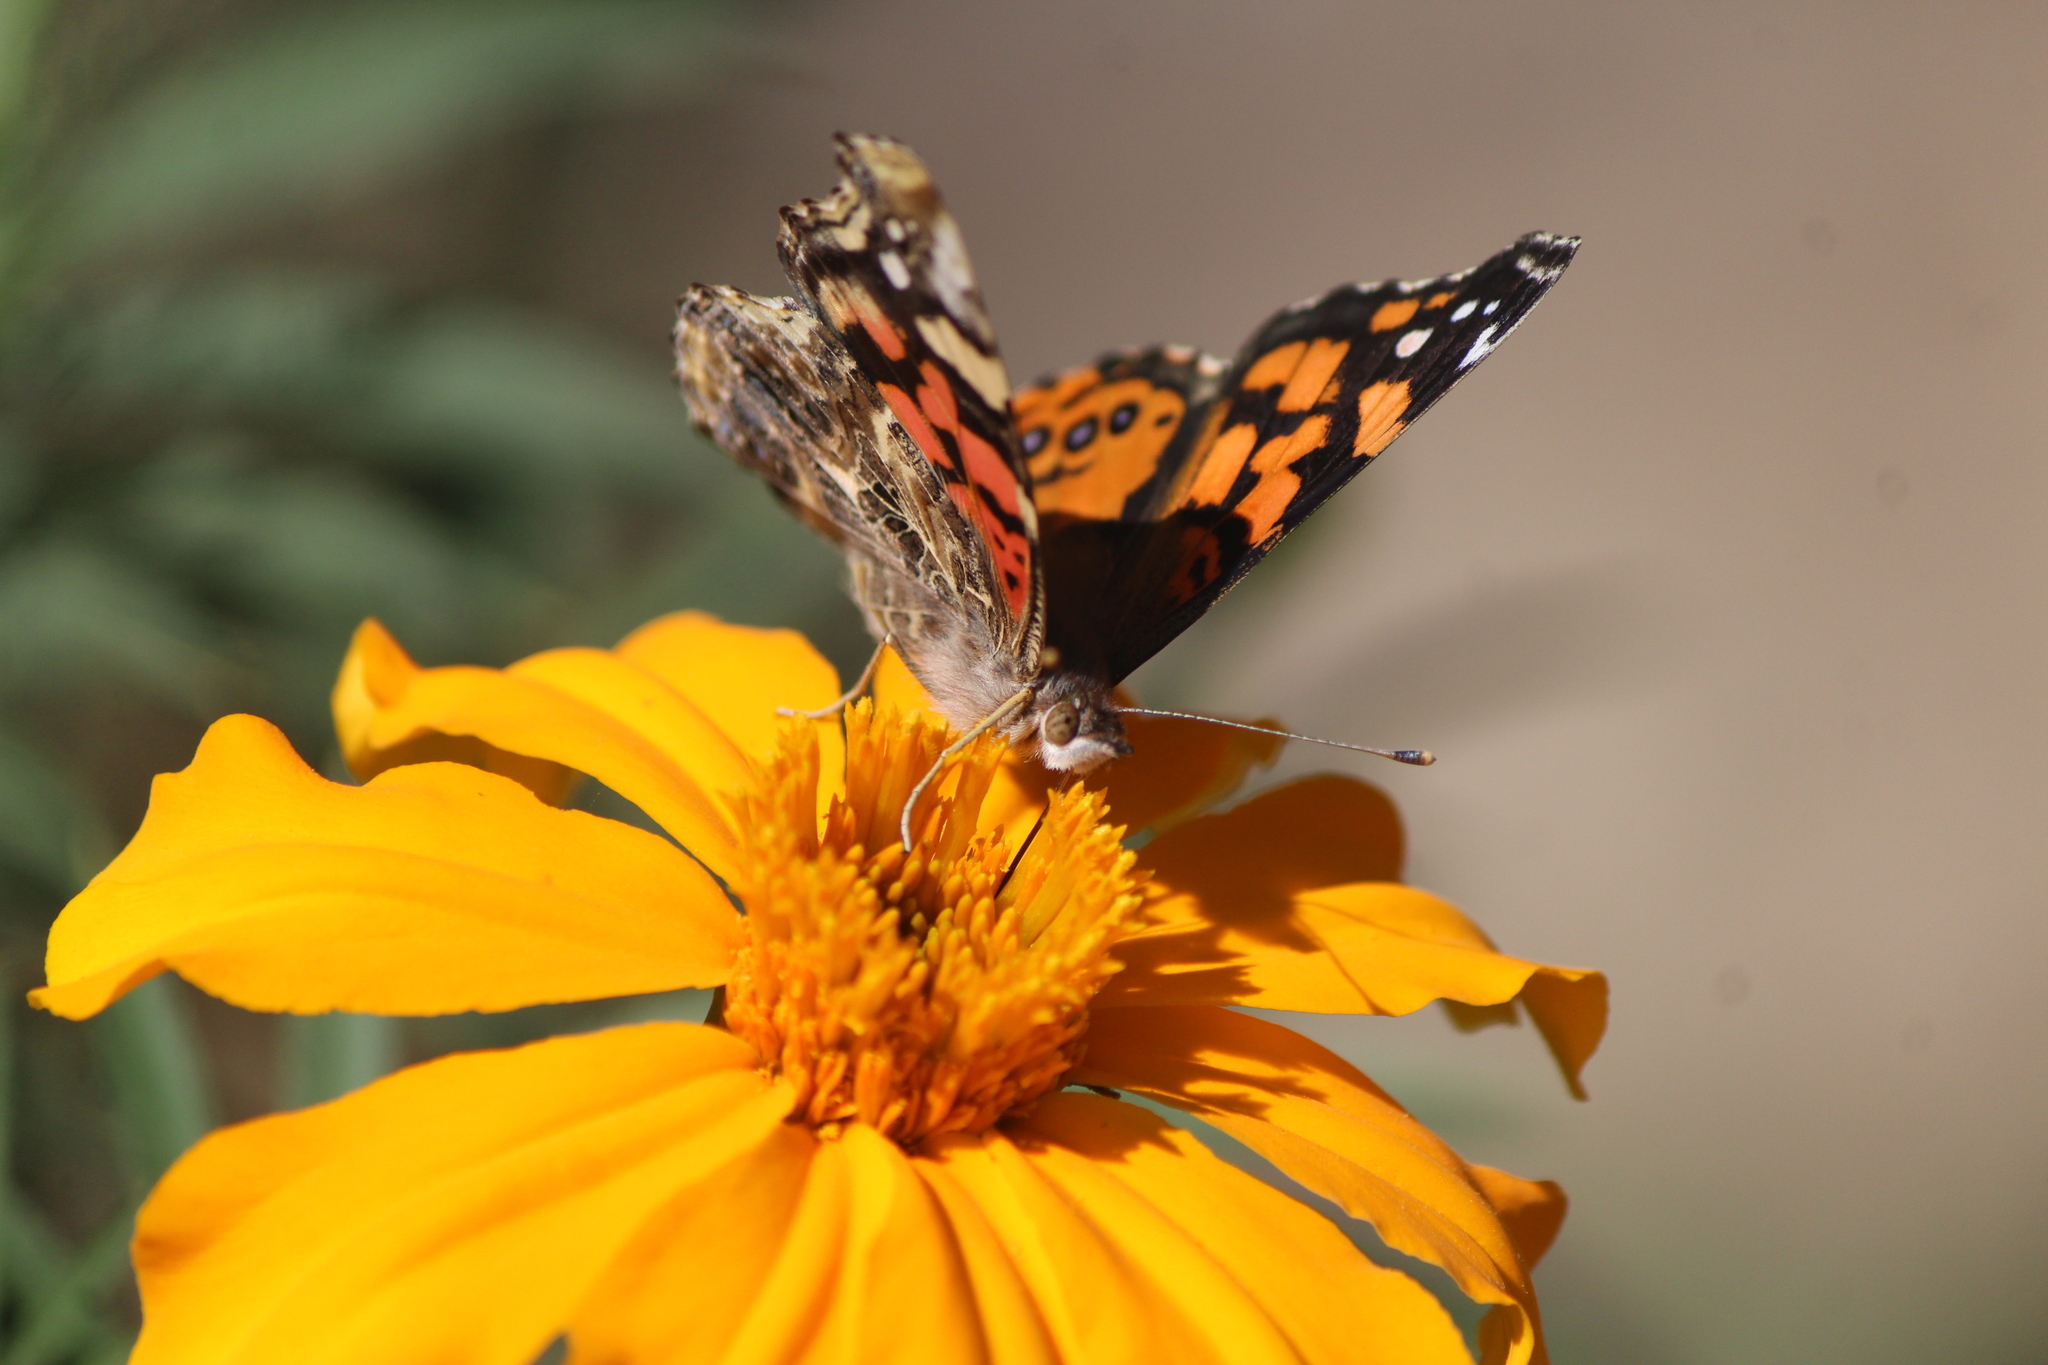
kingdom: Animalia
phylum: Arthropoda
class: Insecta
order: Lepidoptera
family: Nymphalidae
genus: Vanessa
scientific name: Vanessa annabella
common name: West coast lady
